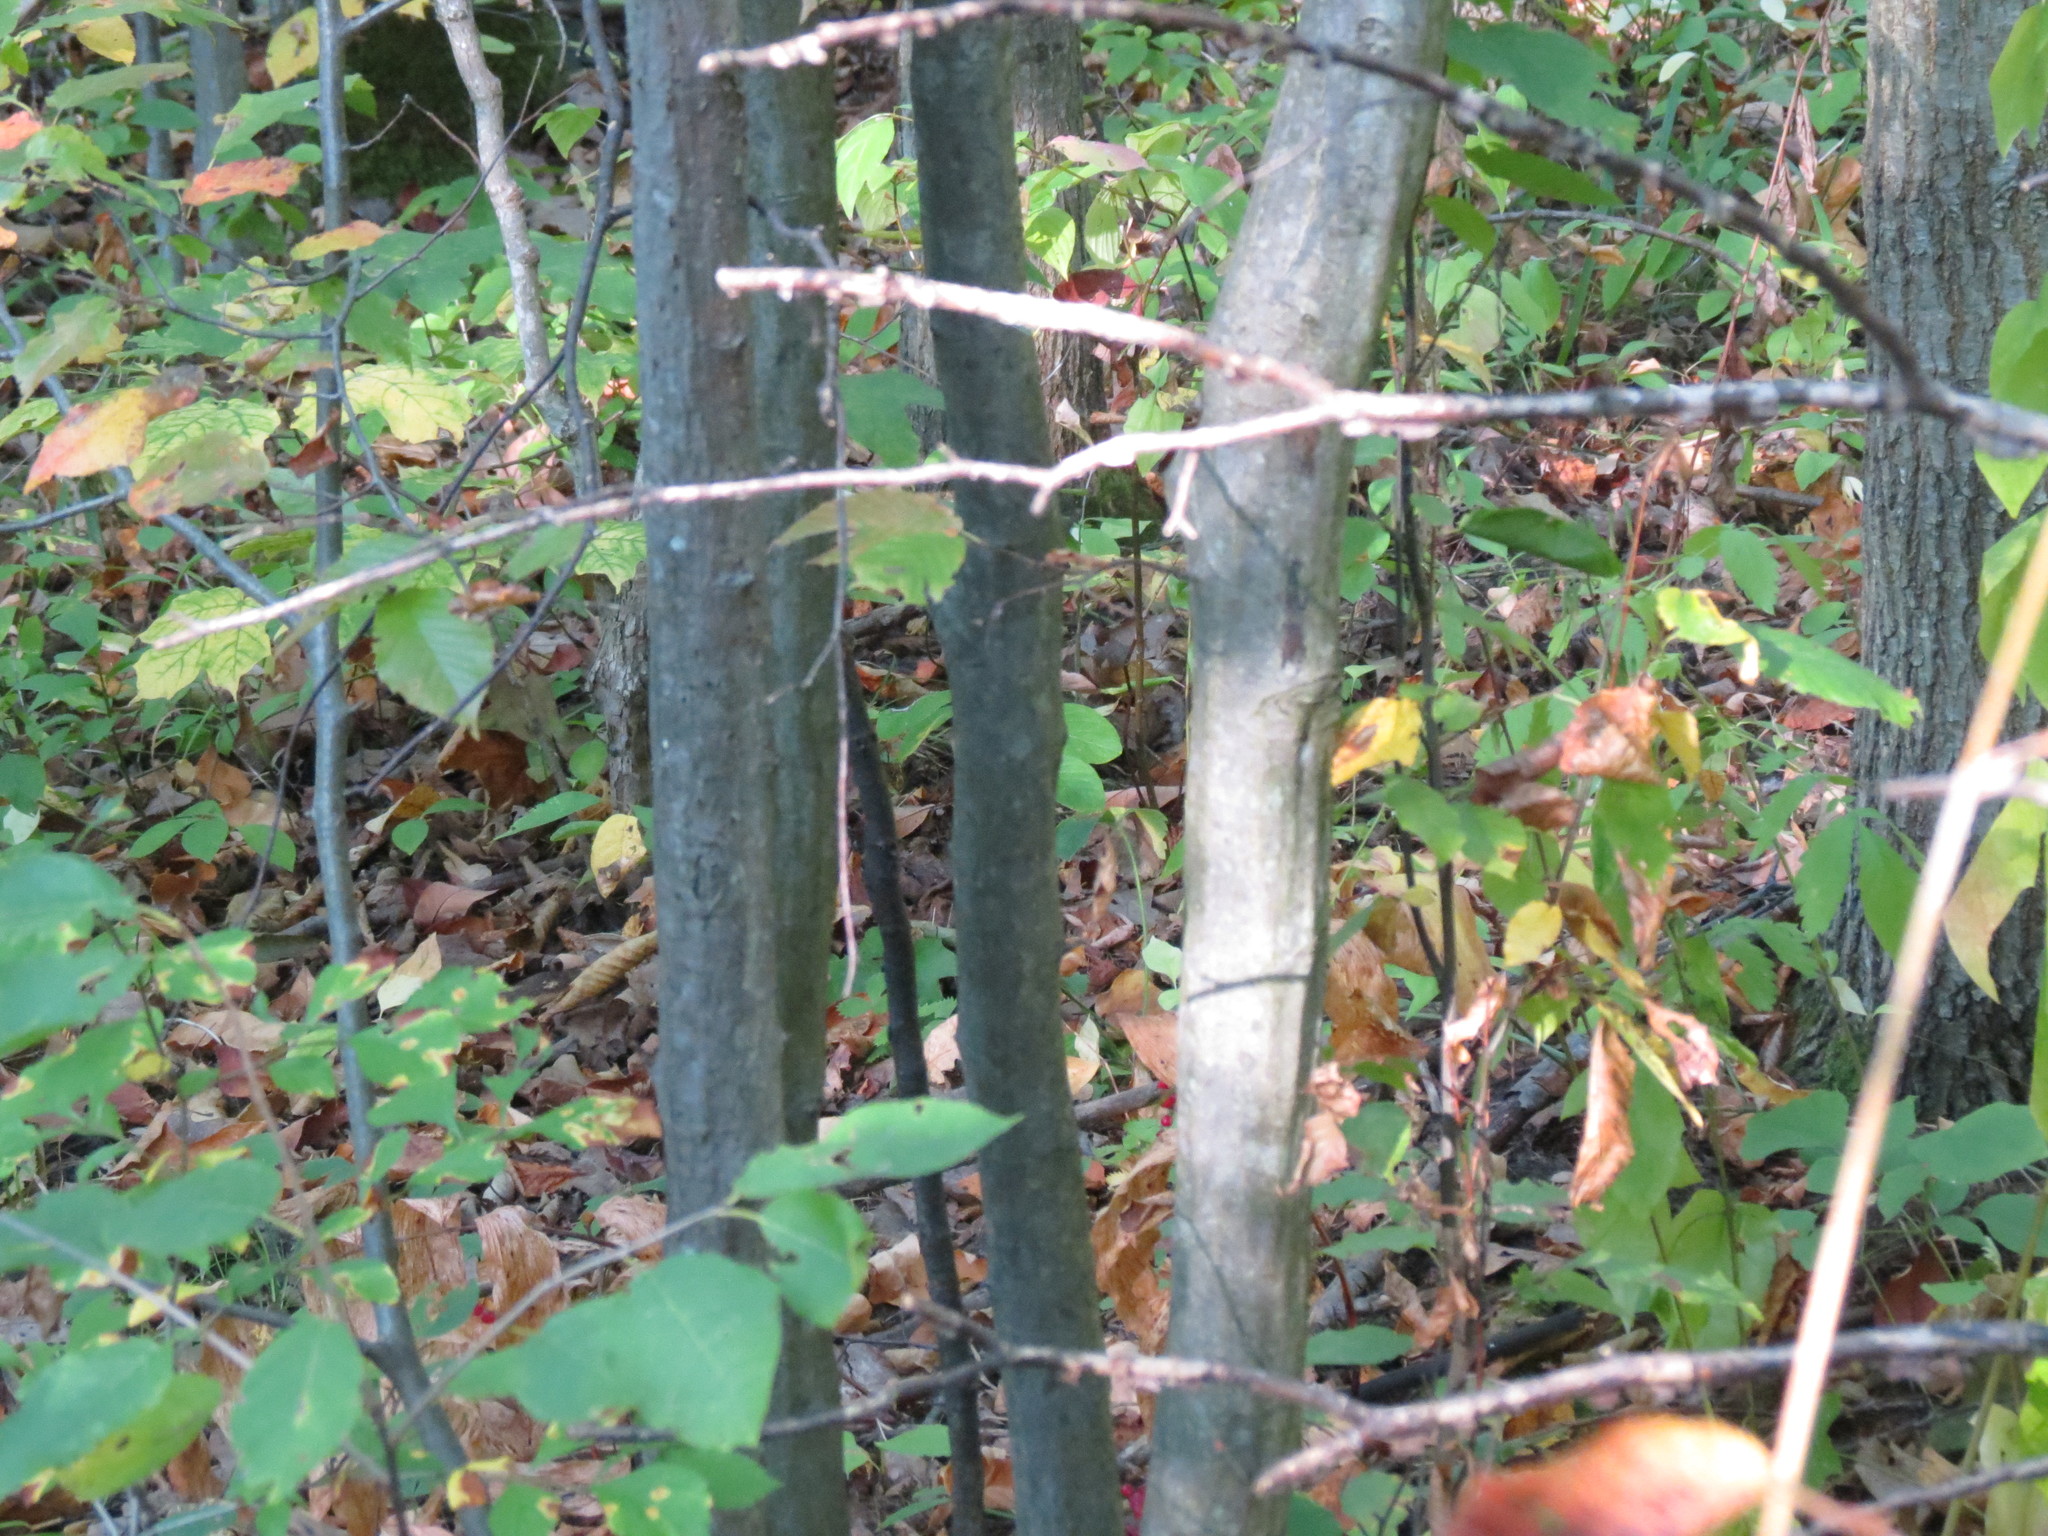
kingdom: Plantae
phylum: Tracheophyta
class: Magnoliopsida
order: Fagales
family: Betulaceae
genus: Carpinus
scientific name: Carpinus caroliniana
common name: American hornbeam
